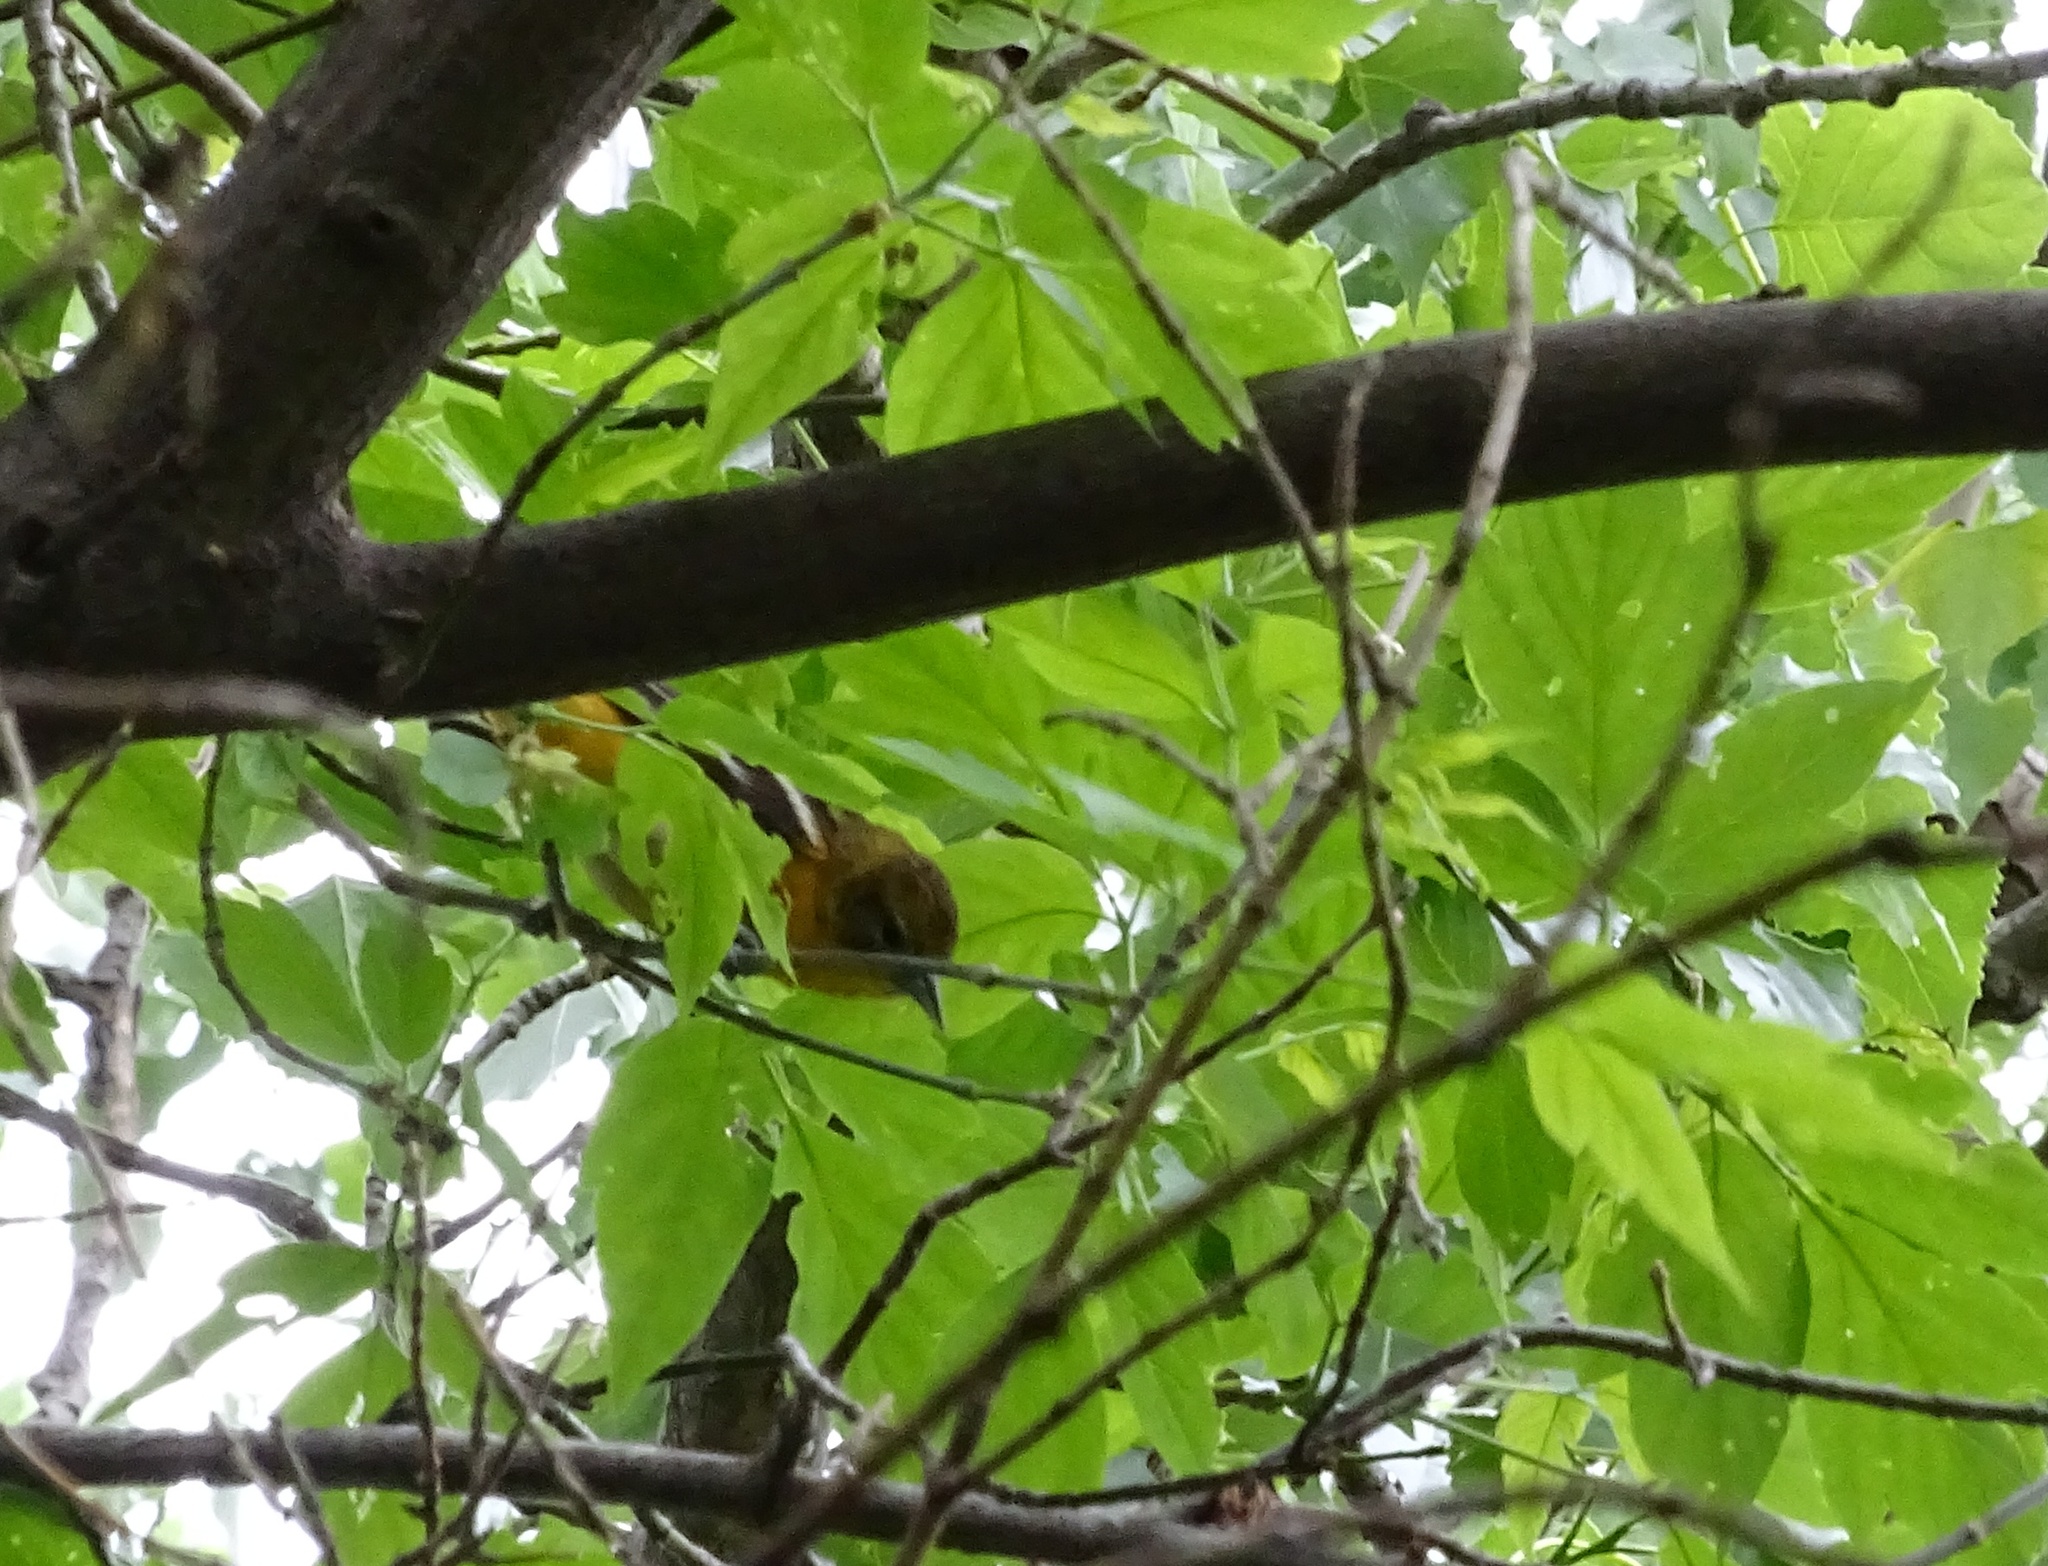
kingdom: Animalia
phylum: Chordata
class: Aves
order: Passeriformes
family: Icteridae
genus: Icterus
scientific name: Icterus galbula
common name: Baltimore oriole
